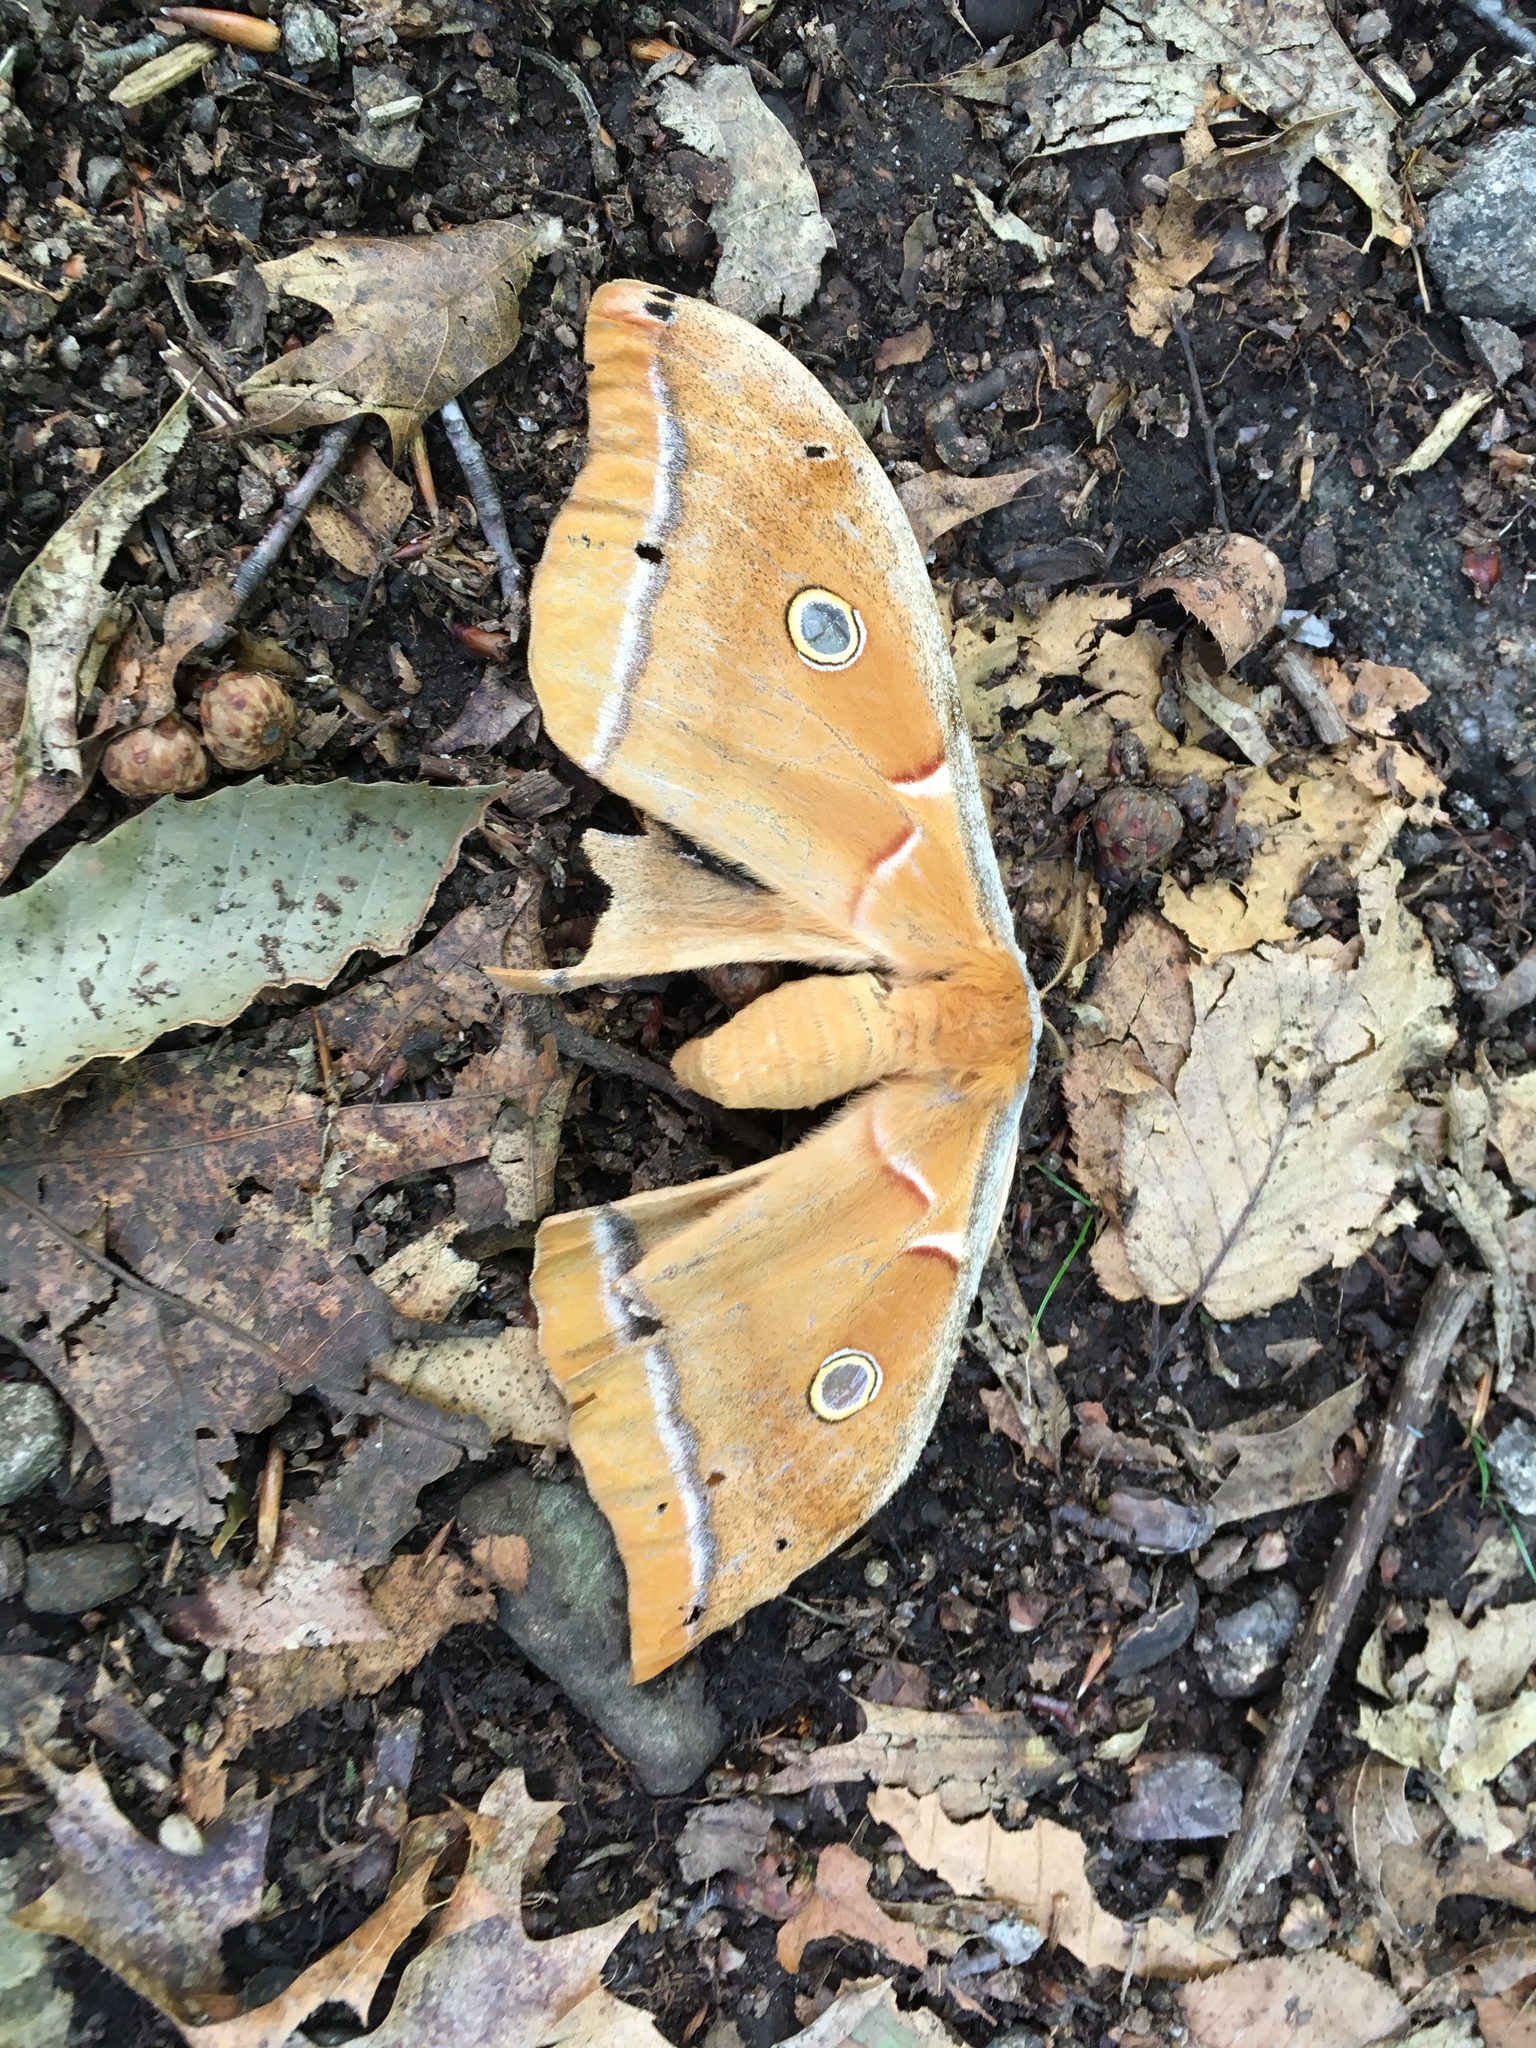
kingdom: Animalia
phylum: Arthropoda
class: Insecta
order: Lepidoptera
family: Saturniidae
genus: Antheraea
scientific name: Antheraea polyphemus
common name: Polyphemus moth
